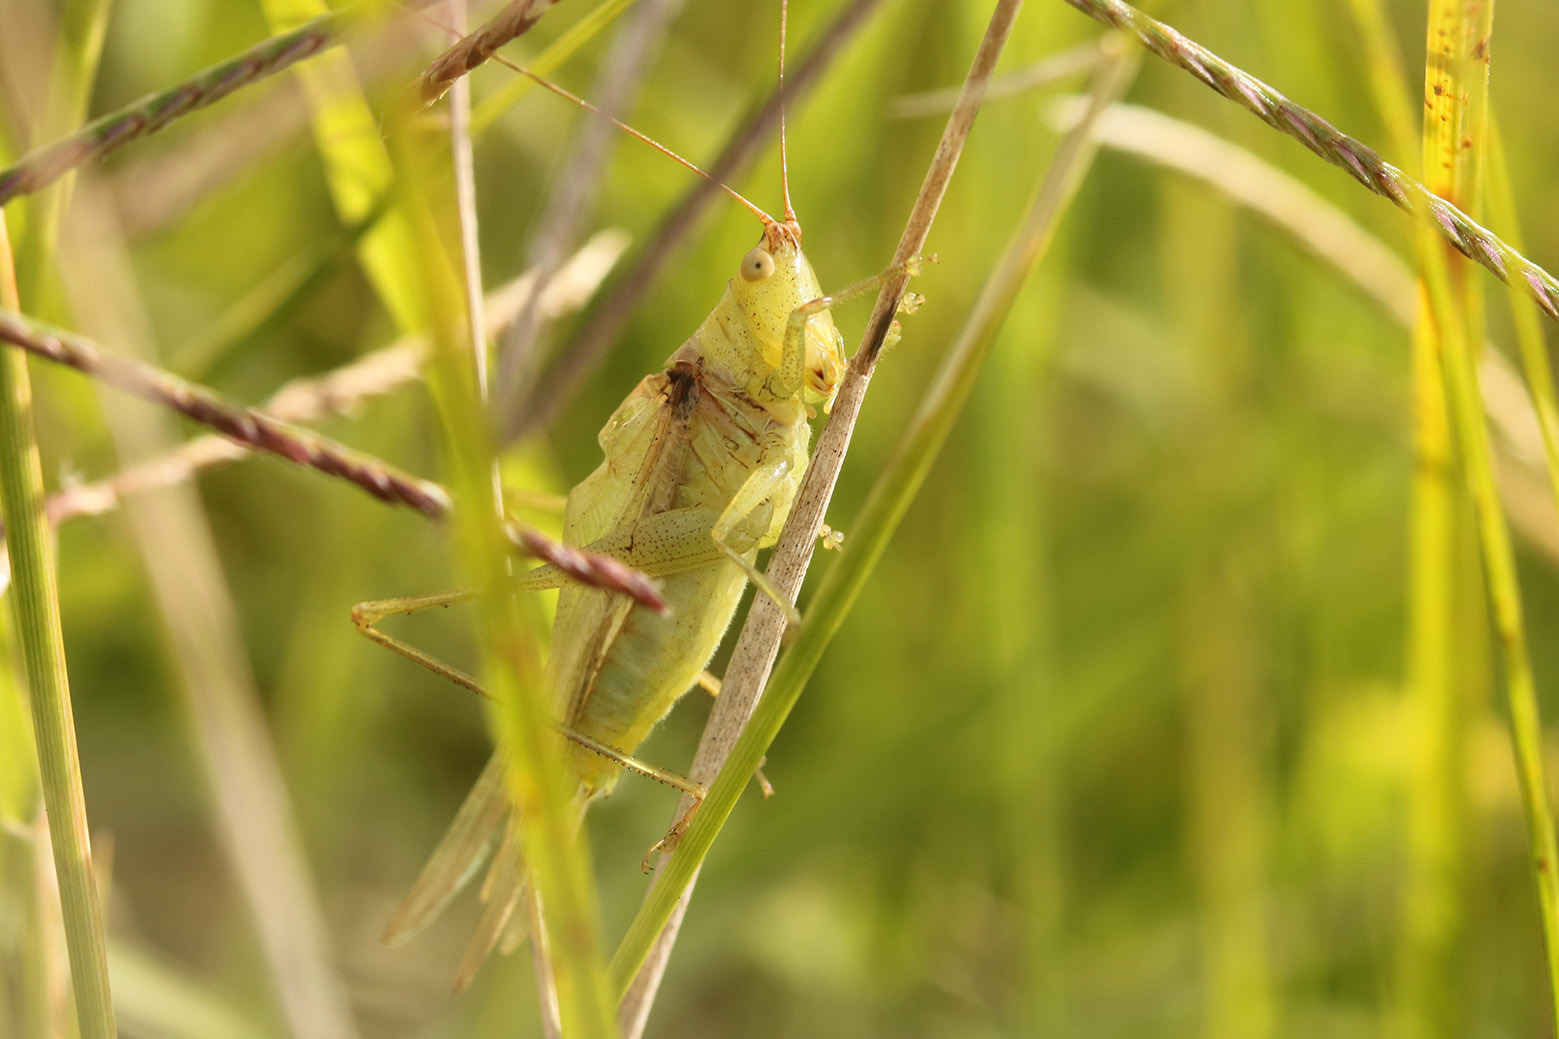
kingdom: Animalia
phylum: Arthropoda
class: Insecta
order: Orthoptera
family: Tettigoniidae
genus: Conocephalus
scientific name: Conocephalus longipes
